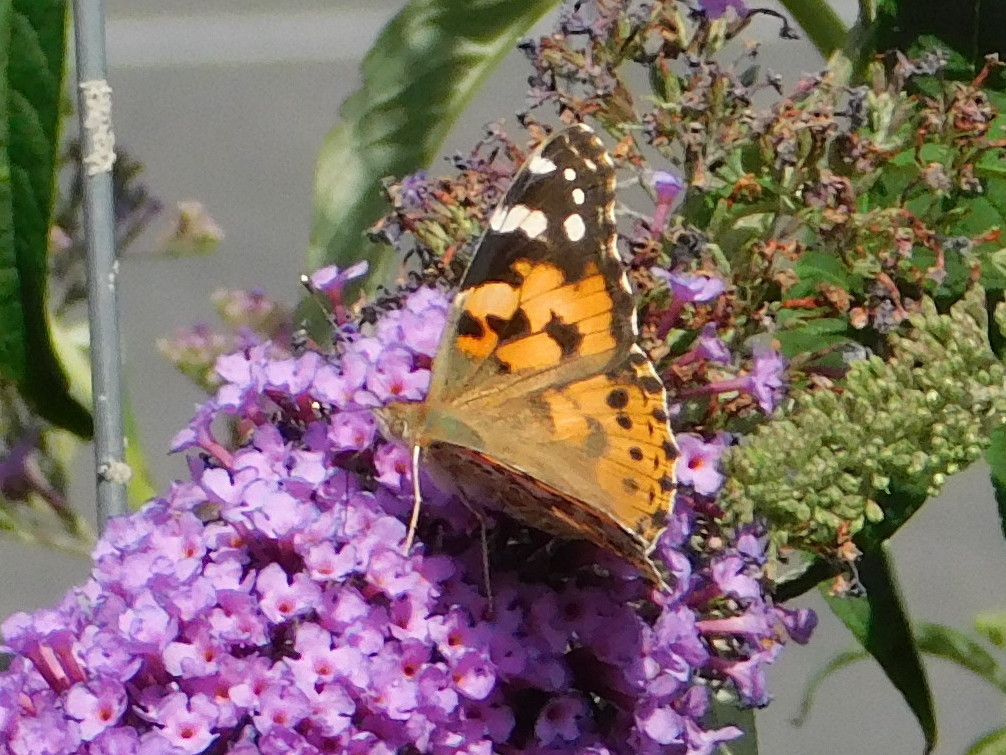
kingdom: Animalia
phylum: Arthropoda
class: Insecta
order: Lepidoptera
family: Nymphalidae
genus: Vanessa
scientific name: Vanessa cardui
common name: Painted lady
